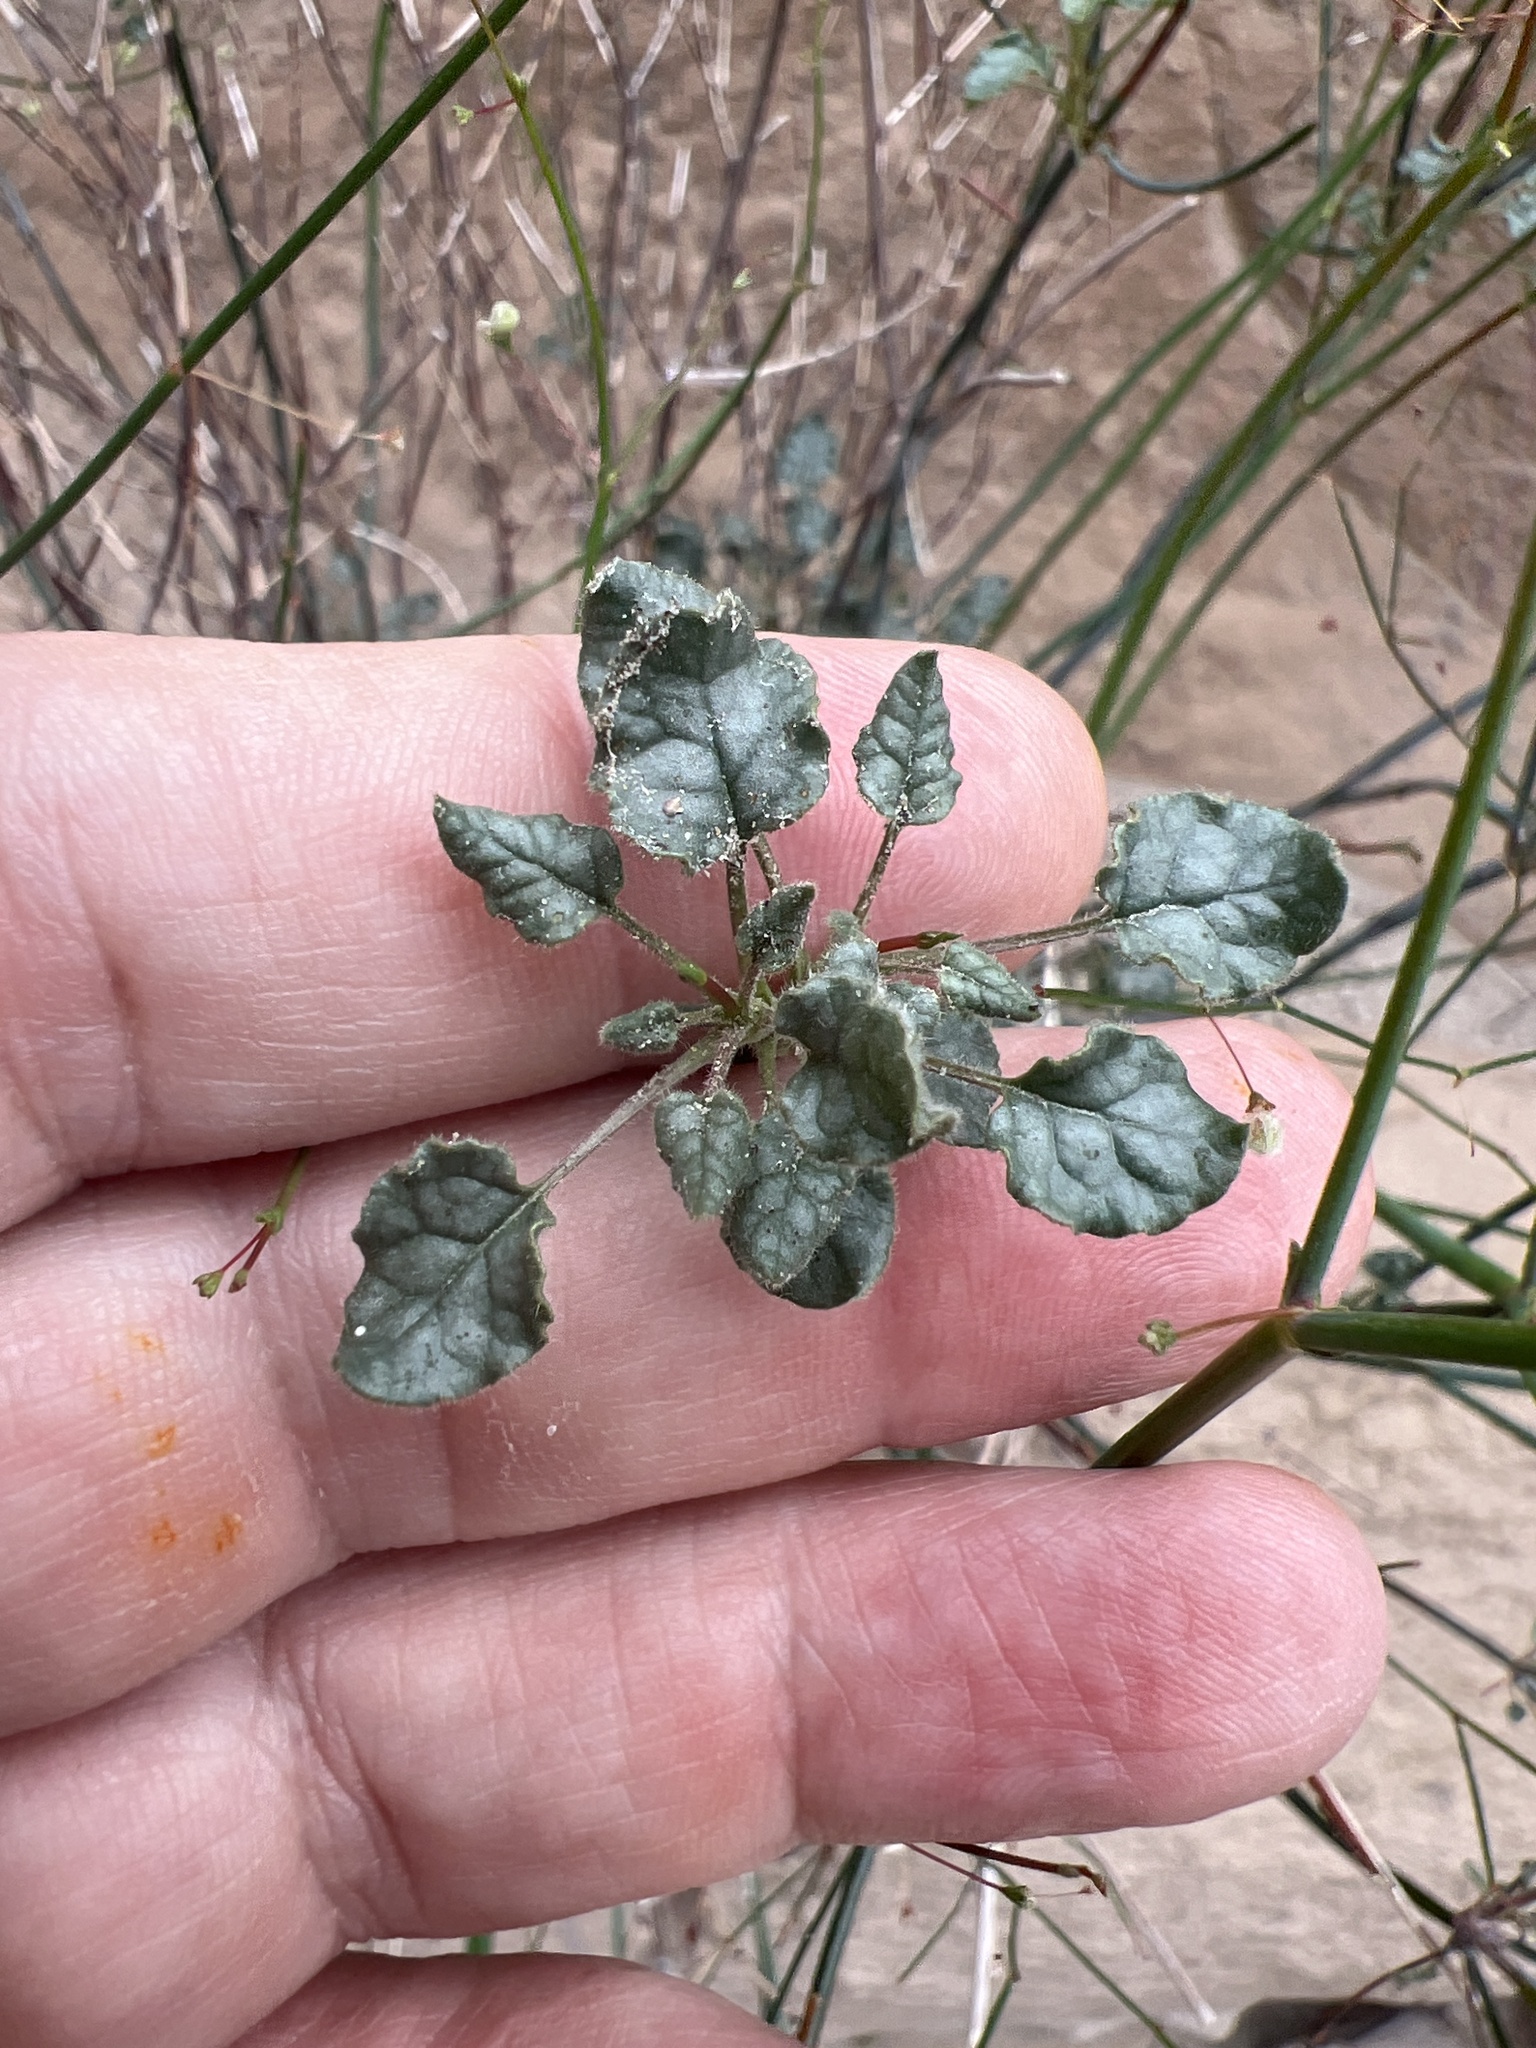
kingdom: Plantae
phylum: Tracheophyta
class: Magnoliopsida
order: Caryophyllales
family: Polygonaceae
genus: Eriogonum
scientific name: Eriogonum inflatum
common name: Desert trumpet
